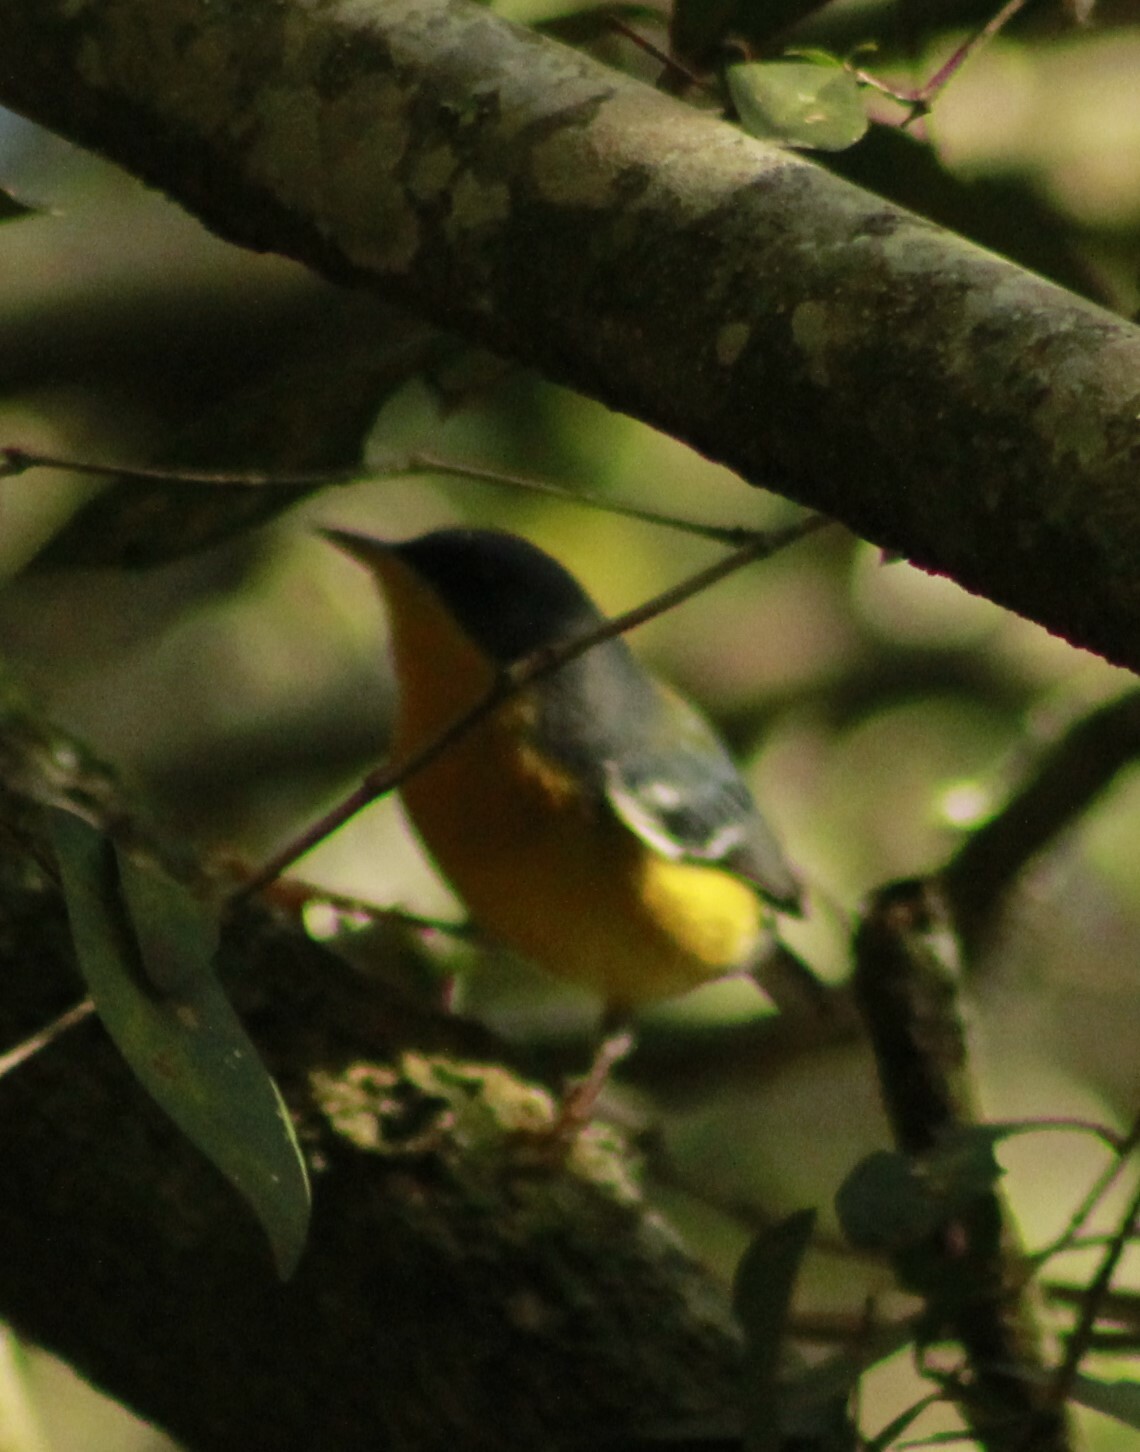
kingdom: Animalia
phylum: Chordata
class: Aves
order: Passeriformes
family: Parulidae
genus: Setophaga
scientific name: Setophaga pitiayumi
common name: Tropical parula
